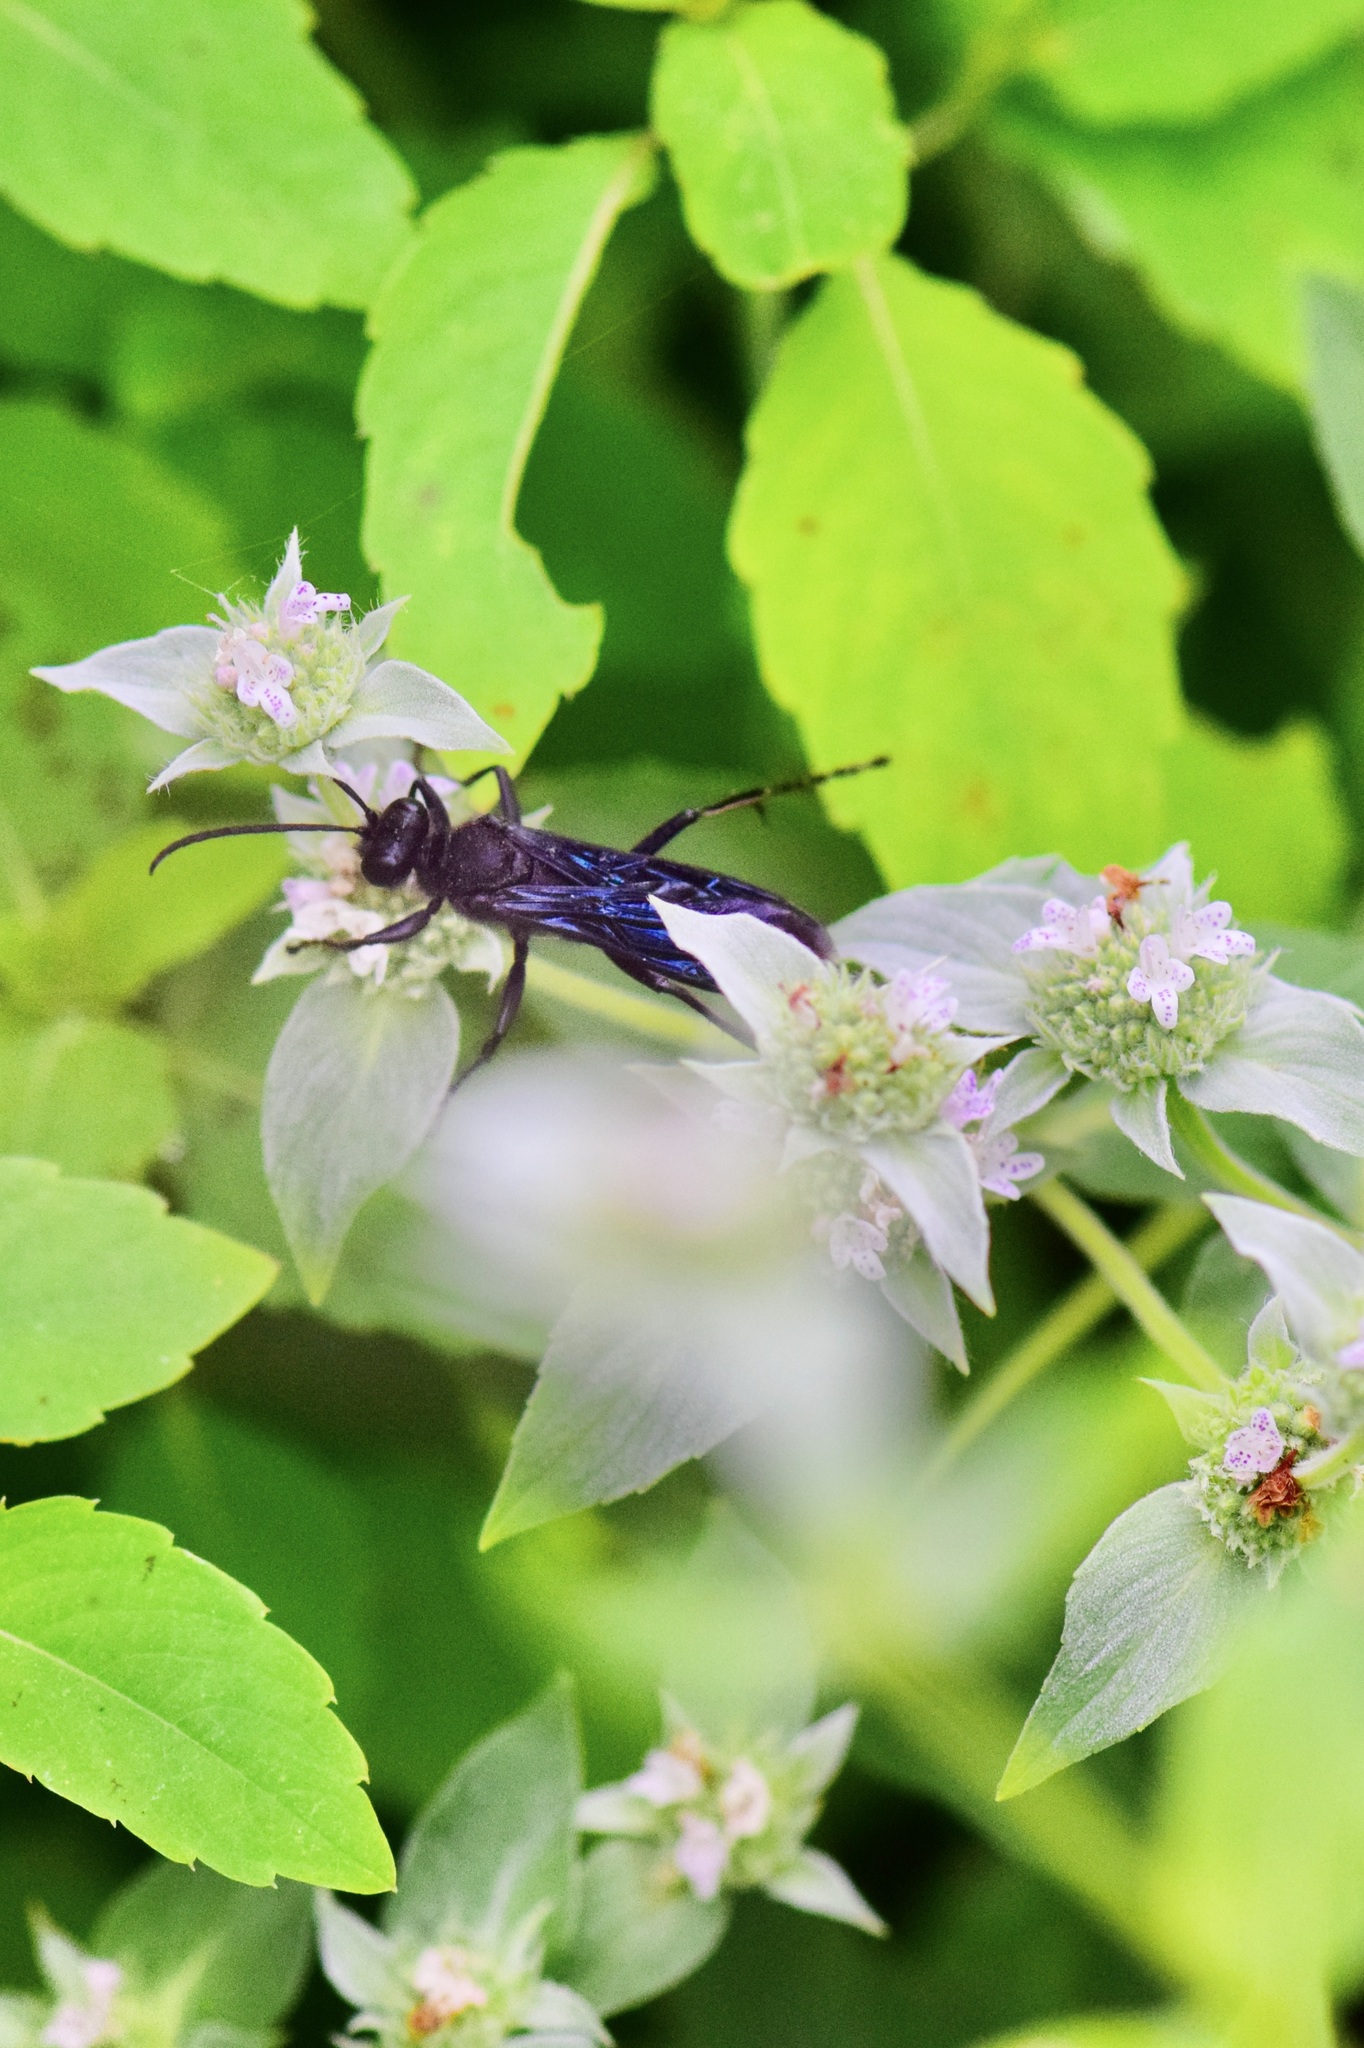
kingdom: Animalia
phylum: Arthropoda
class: Insecta
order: Hymenoptera
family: Sphecidae
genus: Sphex
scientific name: Sphex pensylvanicus
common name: Great black digger wasp
